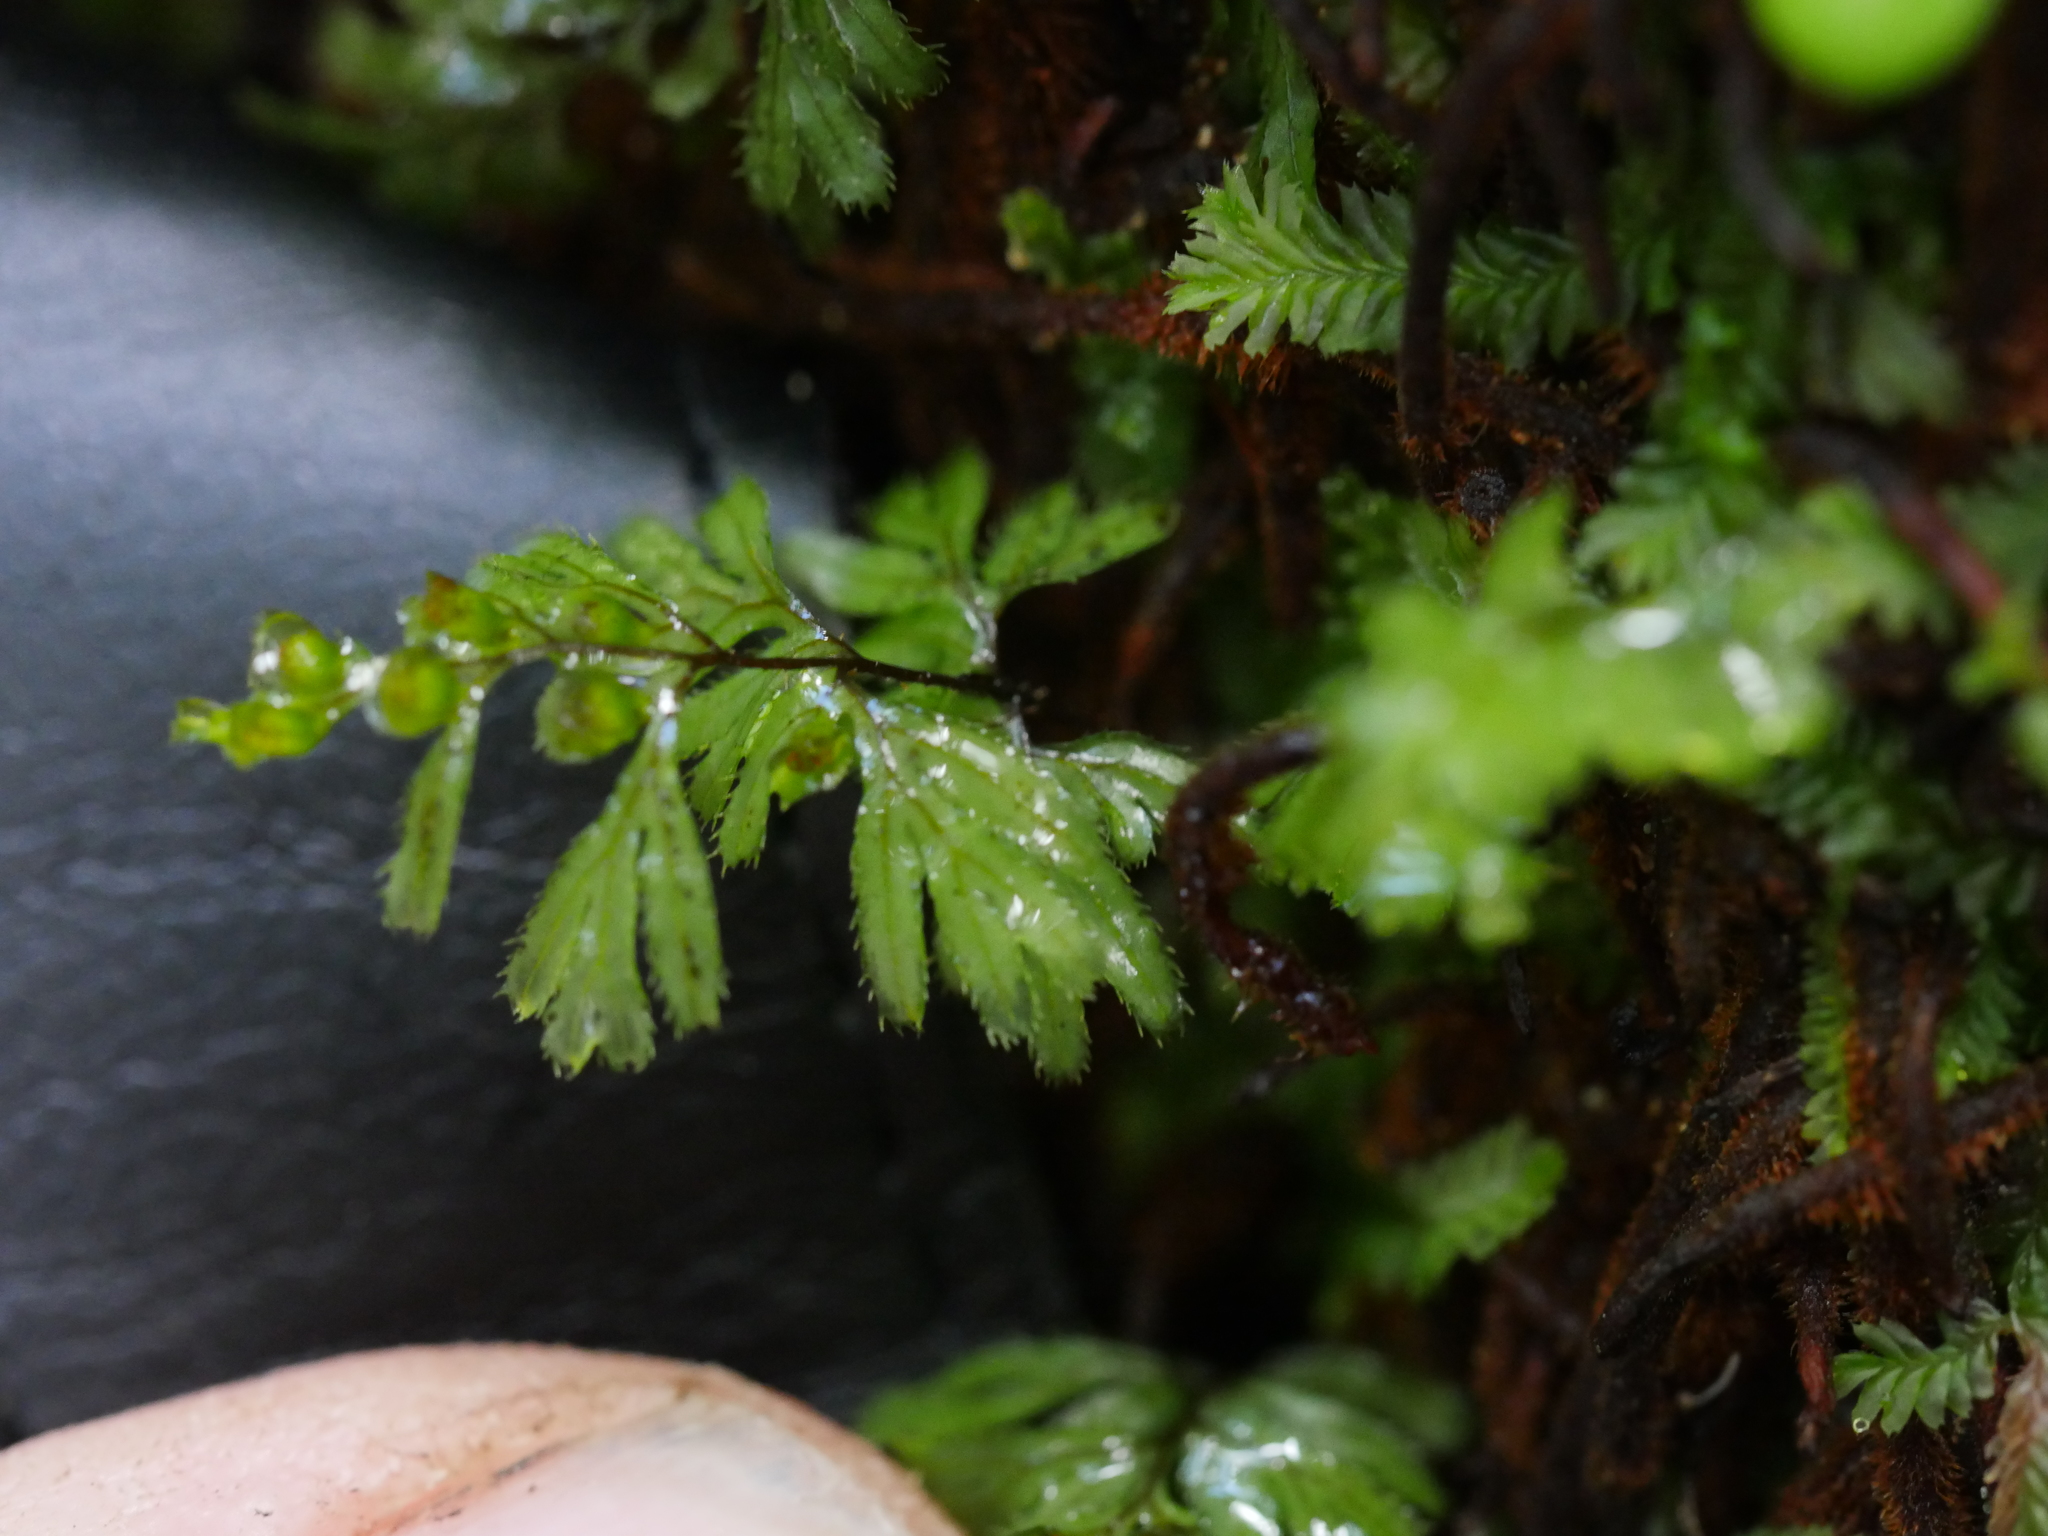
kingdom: Plantae
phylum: Tracheophyta
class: Polypodiopsida
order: Hymenophyllales
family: Hymenophyllaceae
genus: Hymenophyllum
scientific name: Hymenophyllum revolutum
